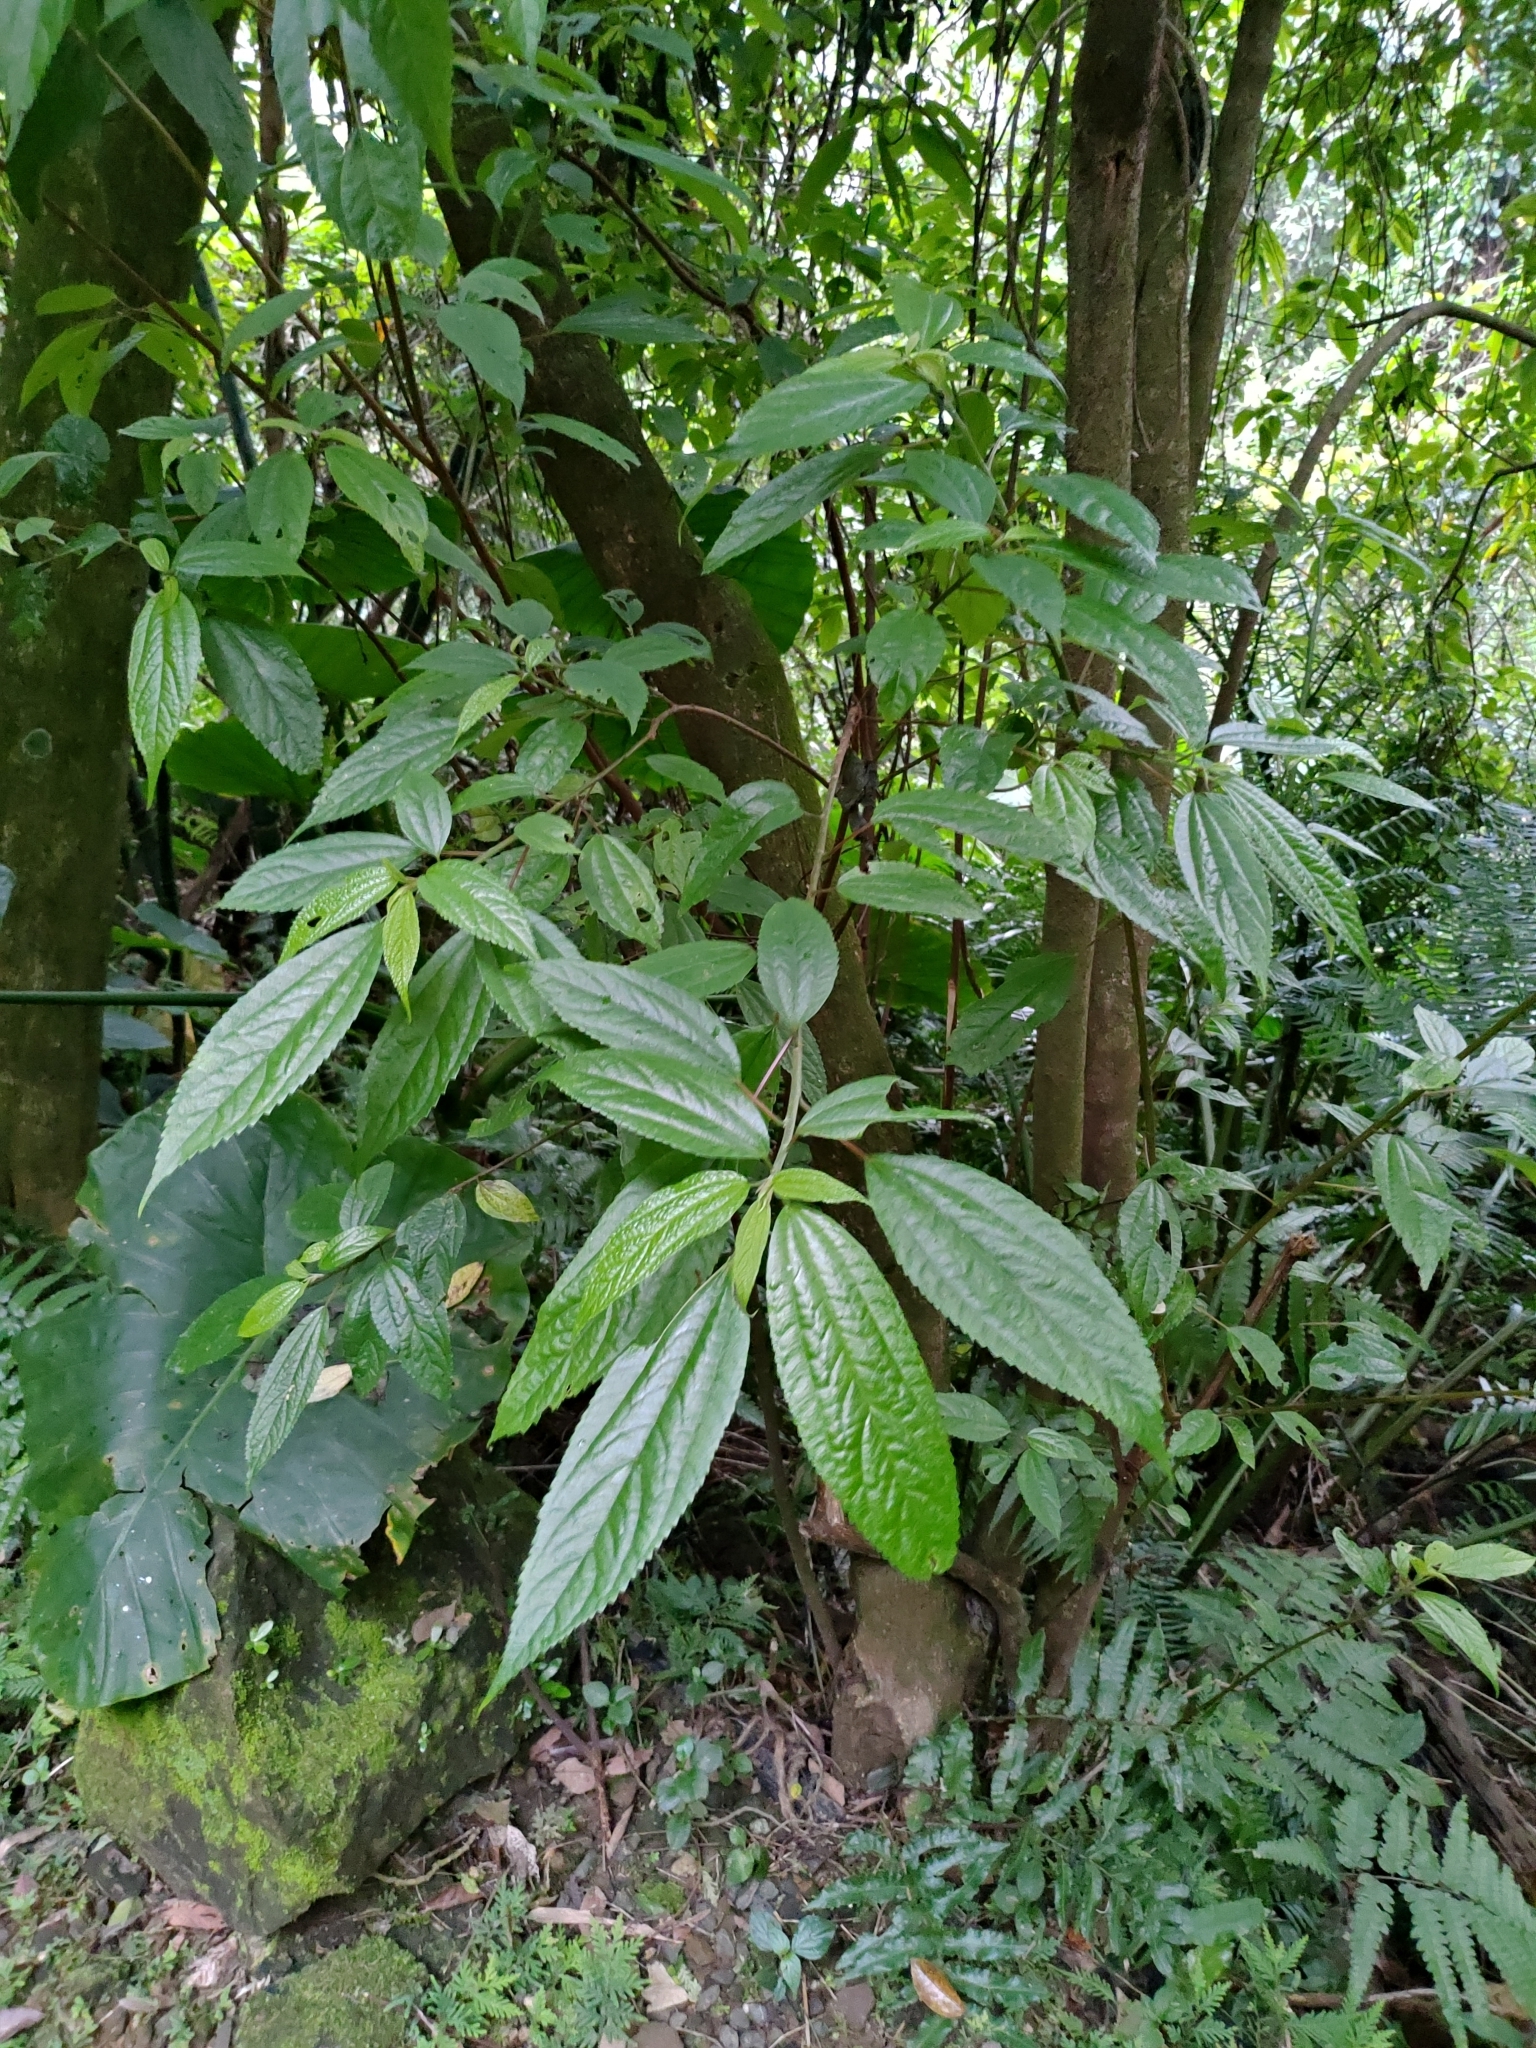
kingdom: Plantae
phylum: Tracheophyta
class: Magnoliopsida
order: Rosales
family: Urticaceae
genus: Oreocnide
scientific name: Oreocnide pedunculata
